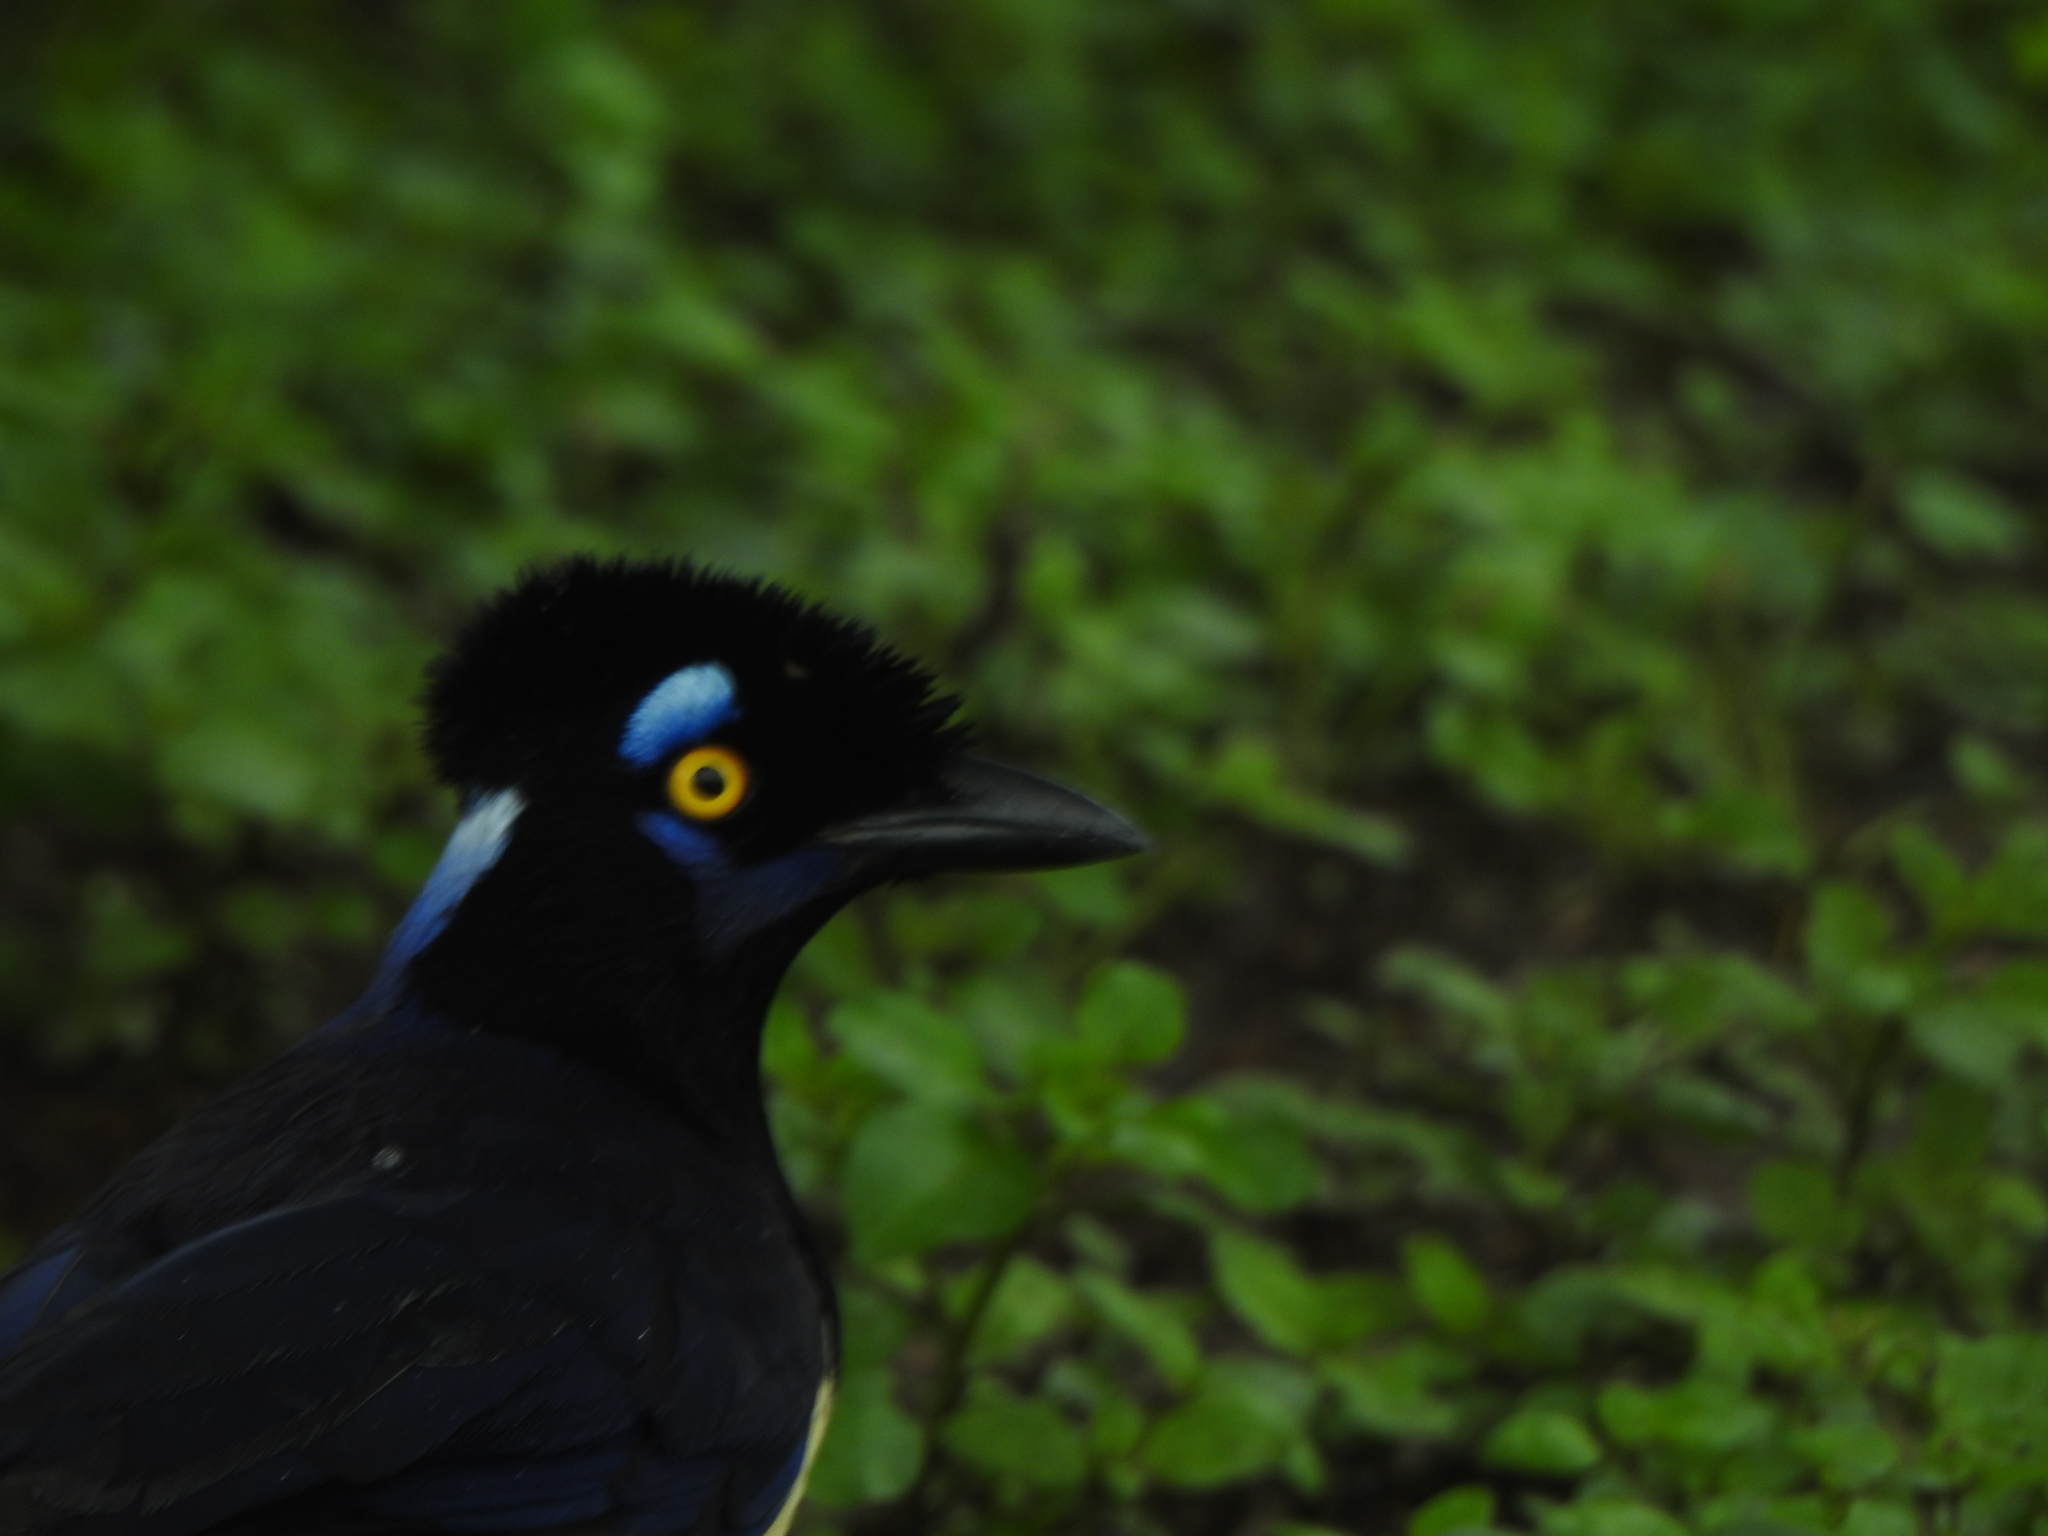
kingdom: Animalia
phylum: Chordata
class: Aves
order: Passeriformes
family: Corvidae
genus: Cyanocorax
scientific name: Cyanocorax chrysops
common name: Plush-crested jay
